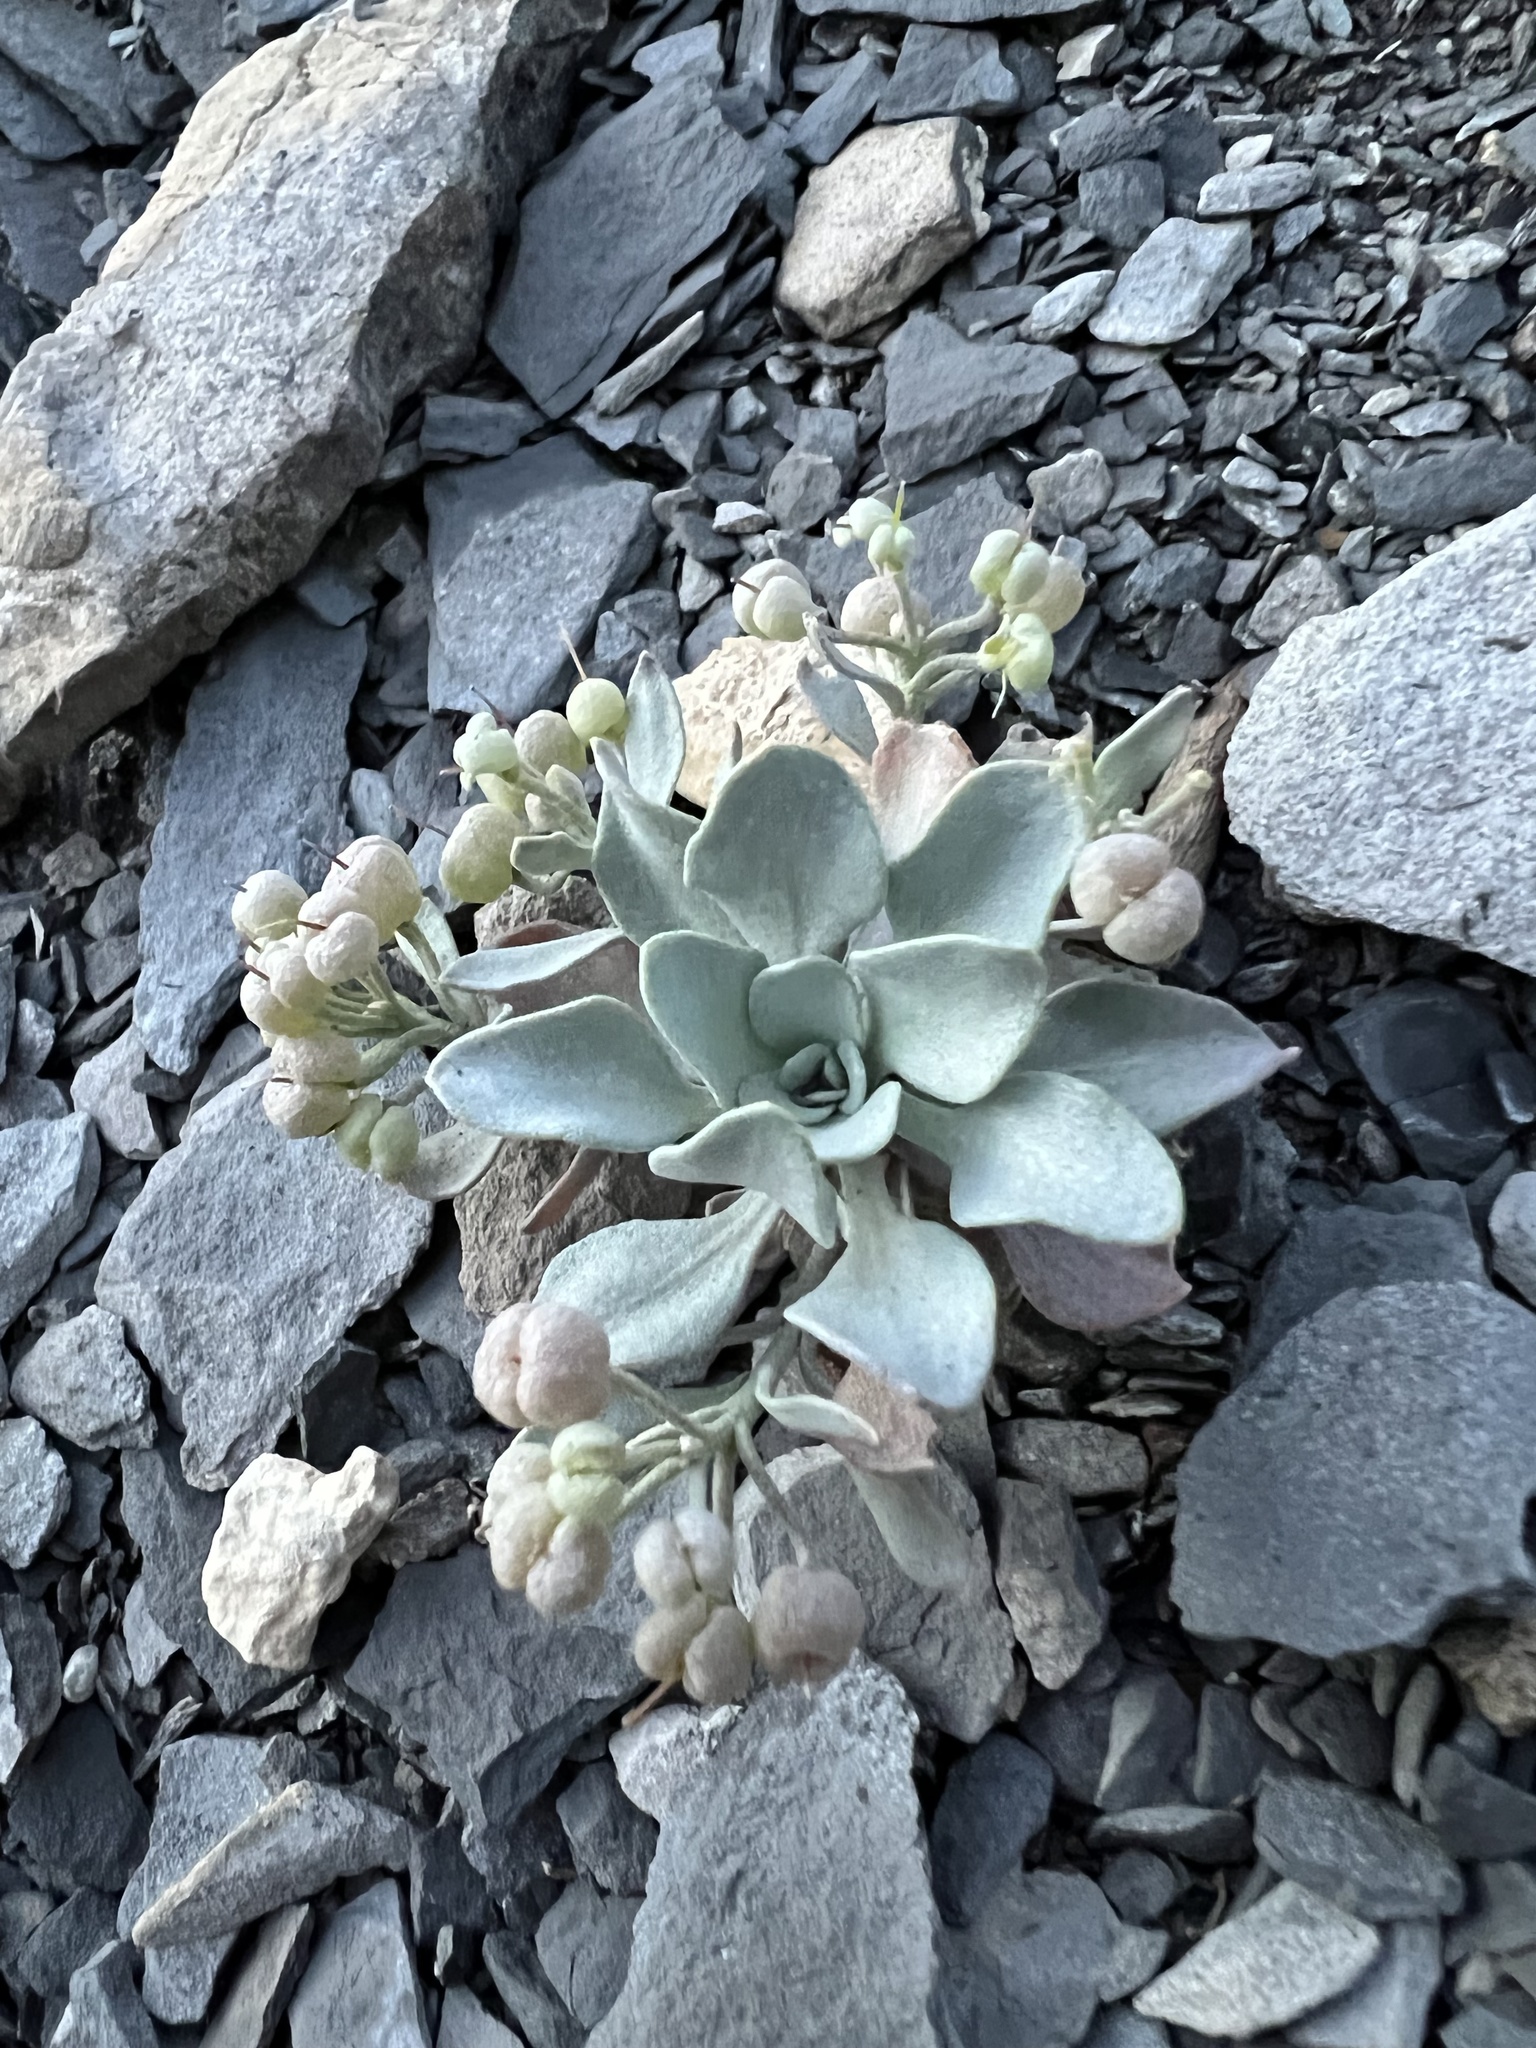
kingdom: Plantae
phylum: Tracheophyta
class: Magnoliopsida
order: Brassicales
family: Brassicaceae
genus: Physaria
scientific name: Physaria bellii
